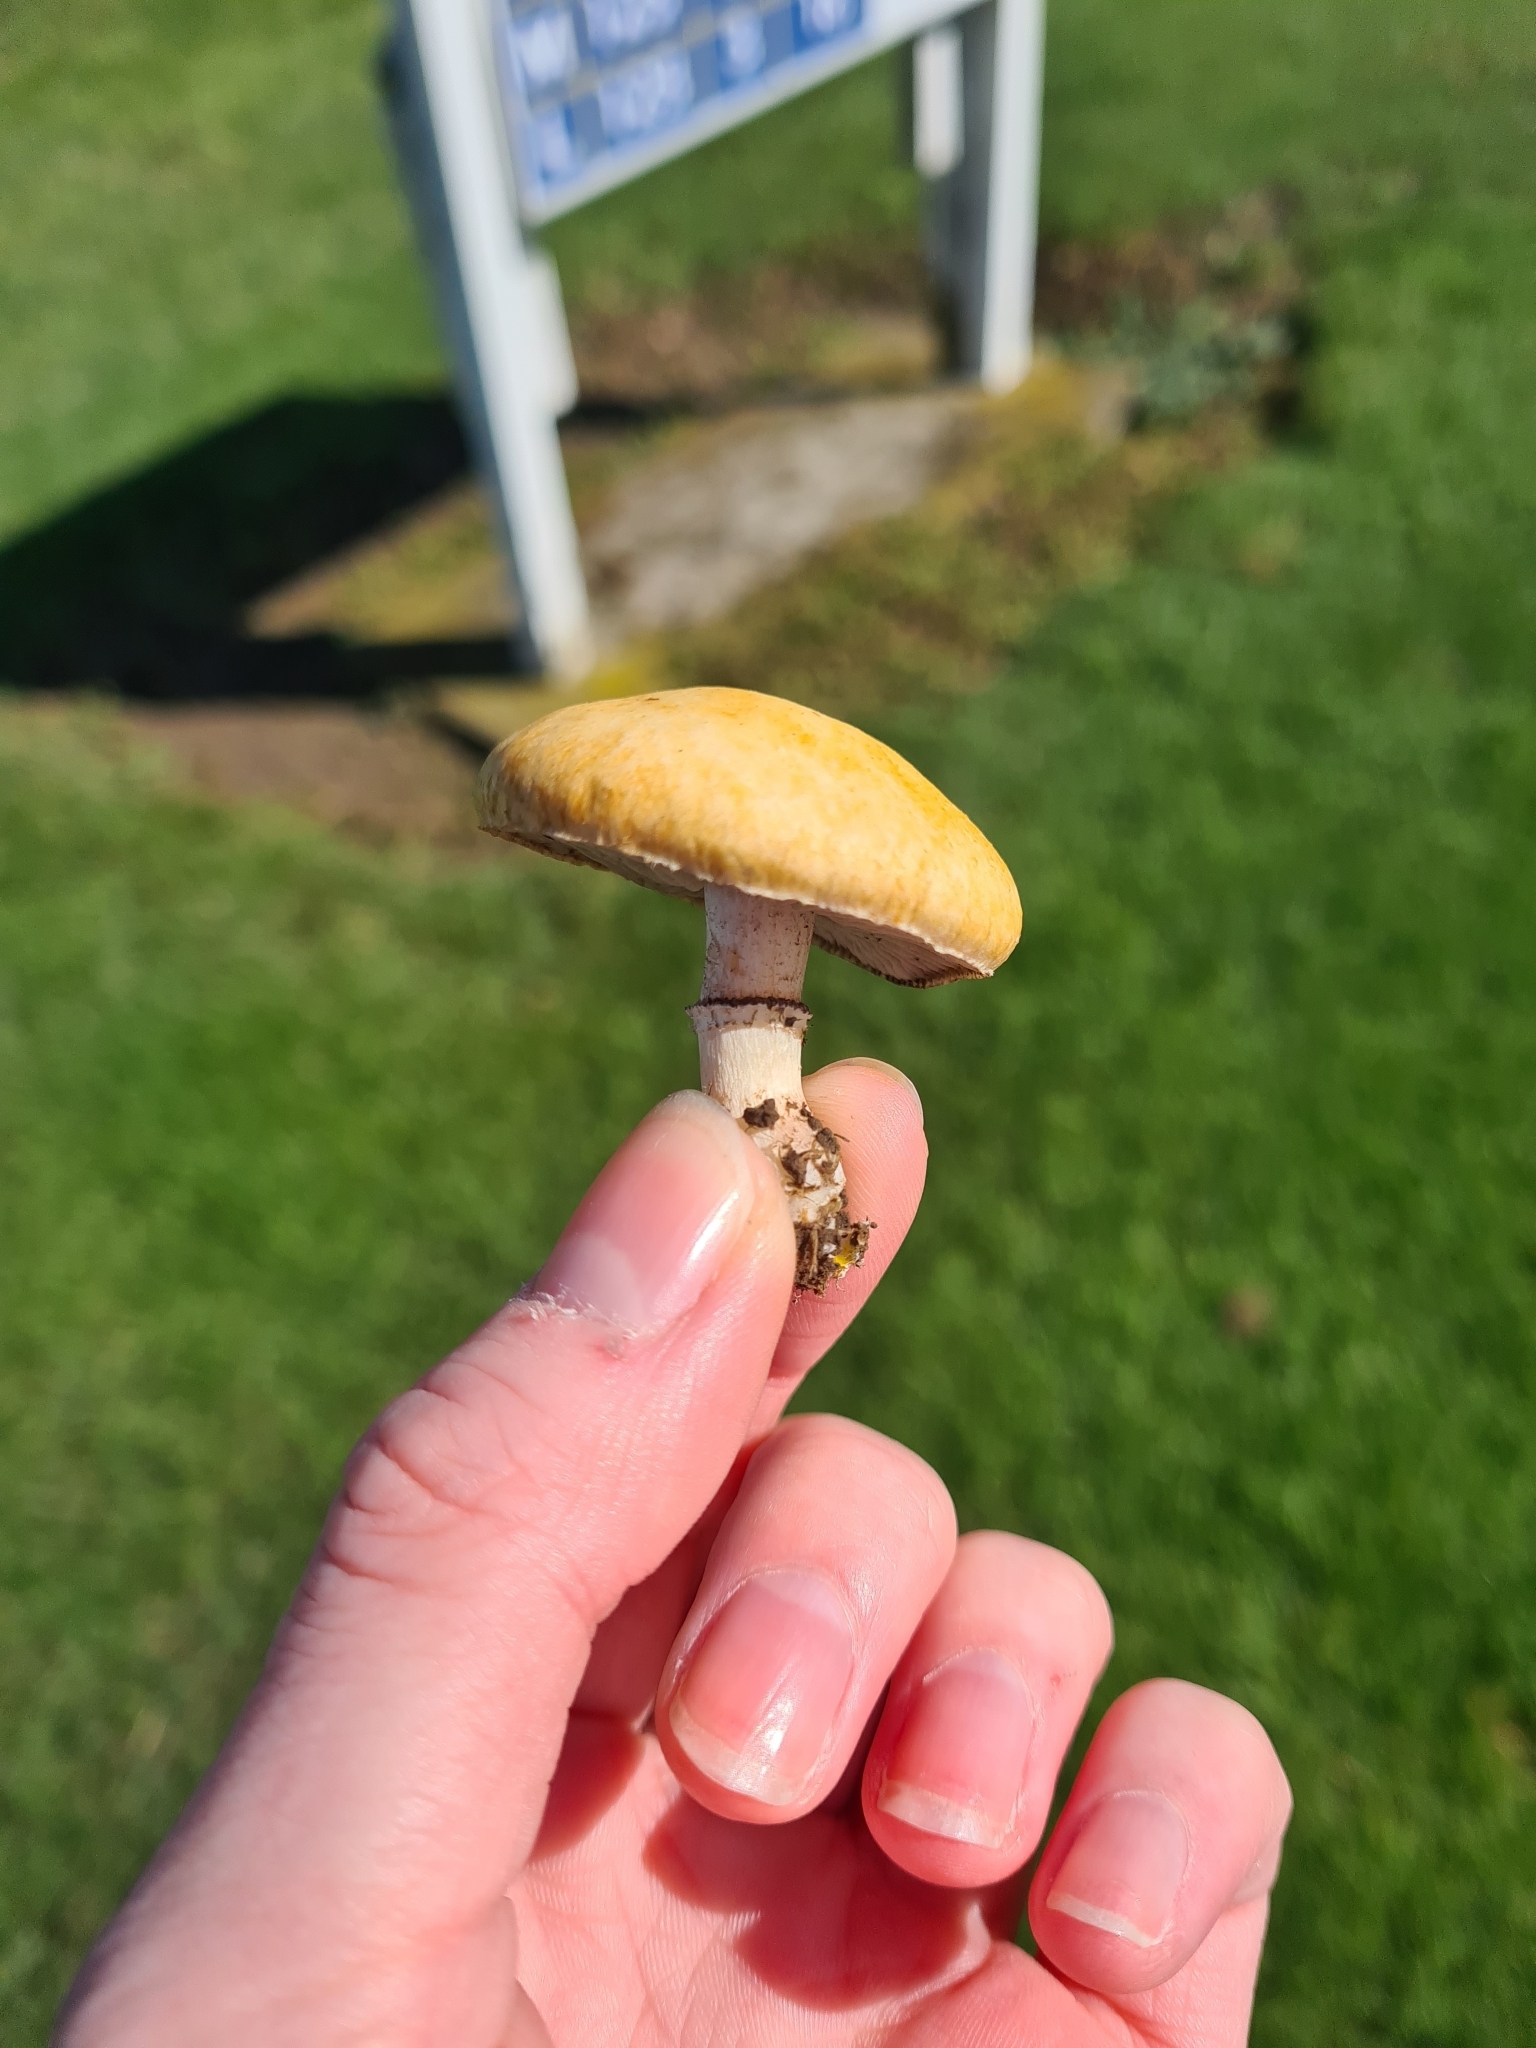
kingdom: Fungi
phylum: Basidiomycota
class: Agaricomycetes
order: Agaricales
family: Hymenogastraceae
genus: Psilocybe
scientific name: Psilocybe coronilla
